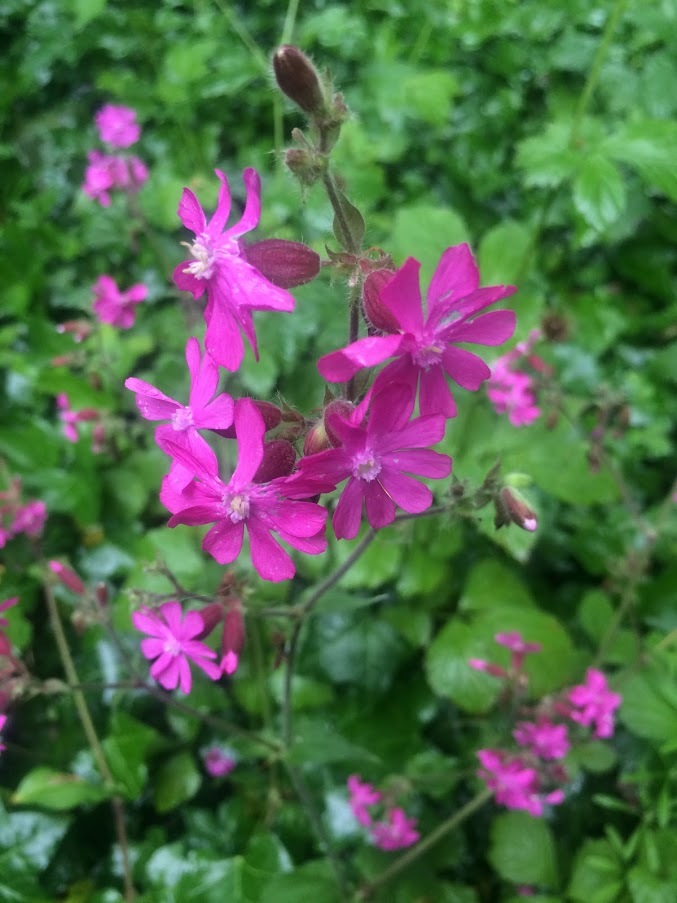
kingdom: Plantae
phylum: Tracheophyta
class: Magnoliopsida
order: Caryophyllales
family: Caryophyllaceae
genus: Silene
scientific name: Silene dioica
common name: Red campion
